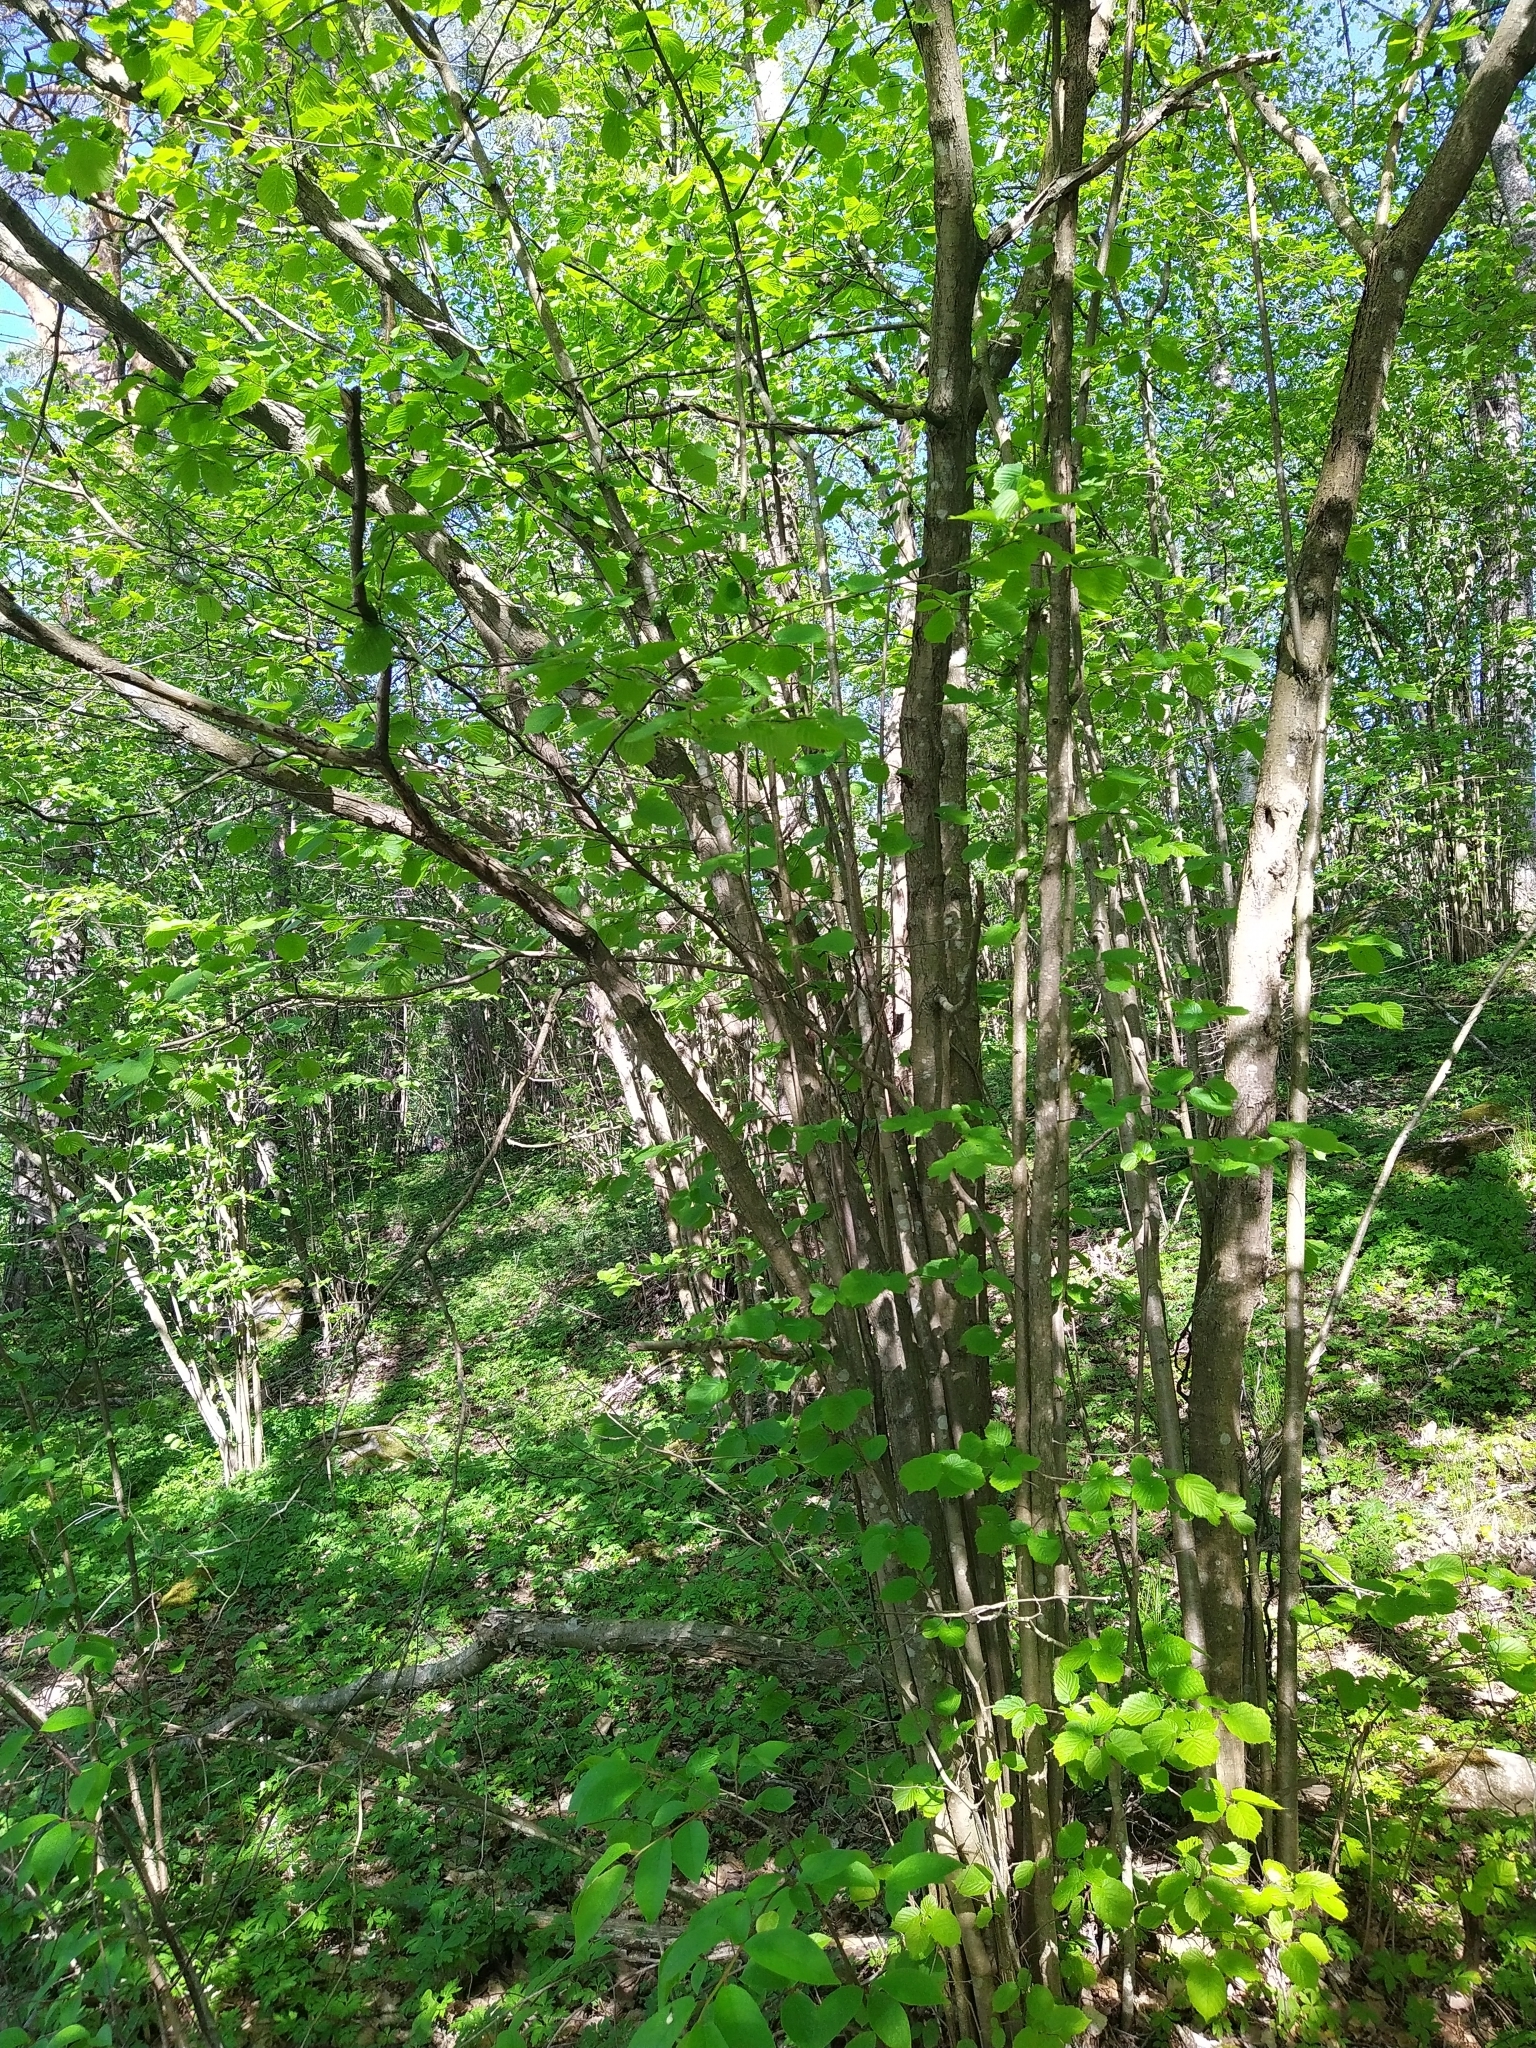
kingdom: Plantae
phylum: Tracheophyta
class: Magnoliopsida
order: Fagales
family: Betulaceae
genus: Corylus
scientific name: Corylus avellana
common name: European hazel
